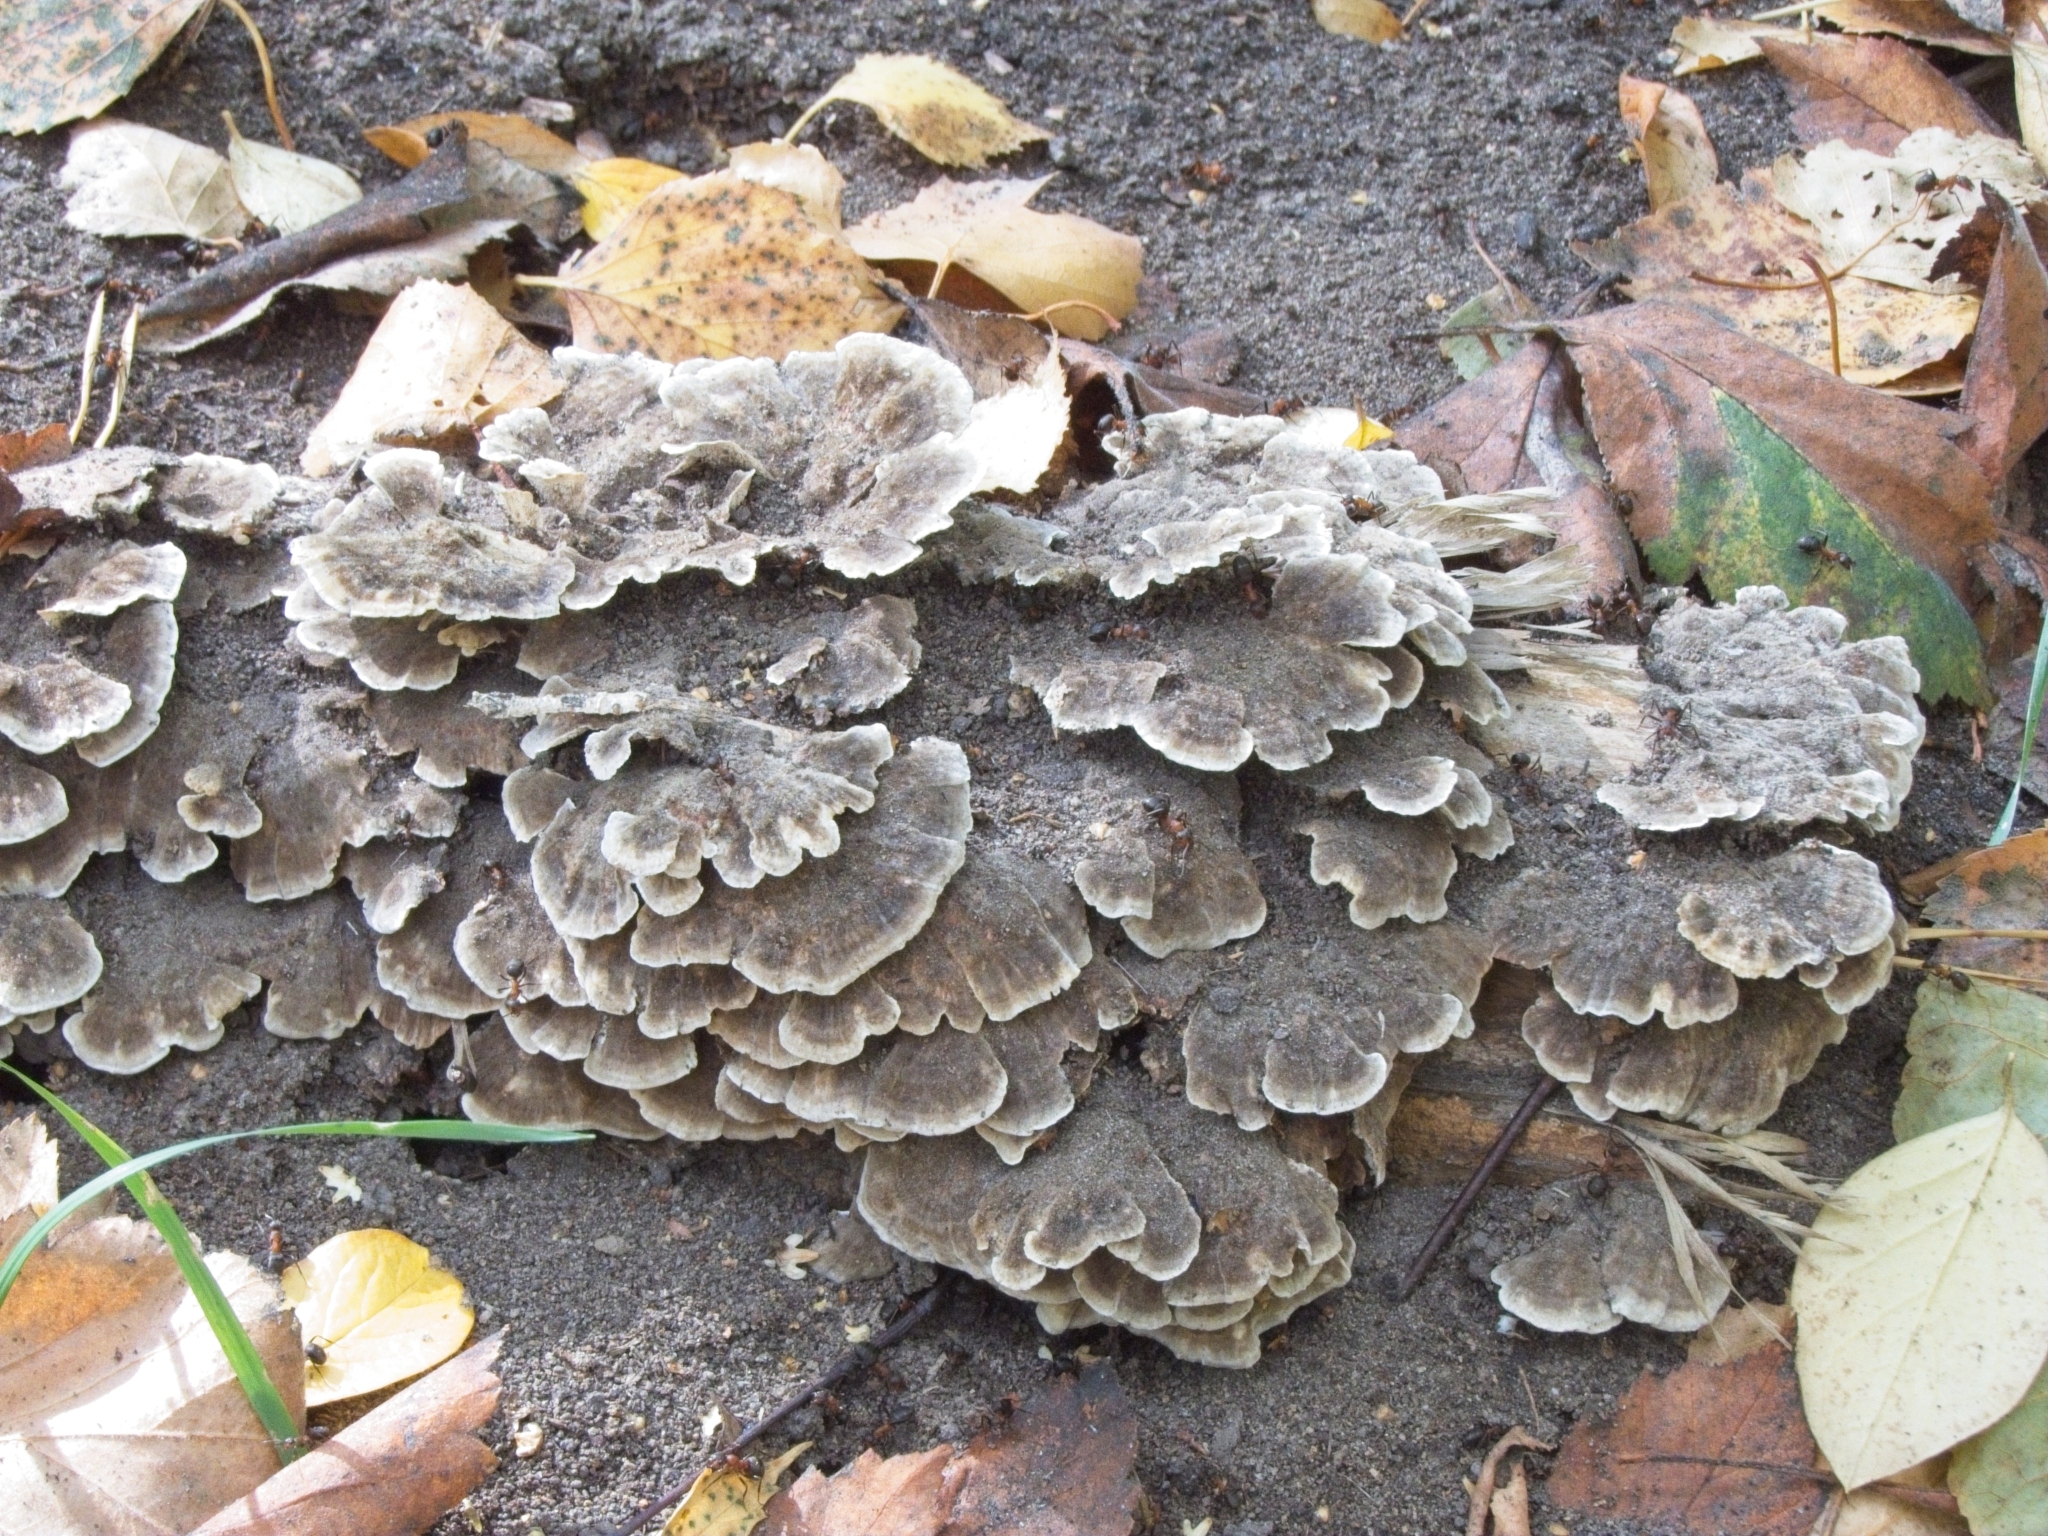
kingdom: Fungi
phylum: Basidiomycota
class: Agaricomycetes
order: Agaricales
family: Schizophyllaceae
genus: Schizophyllum
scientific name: Schizophyllum commune
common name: Common porecrust
